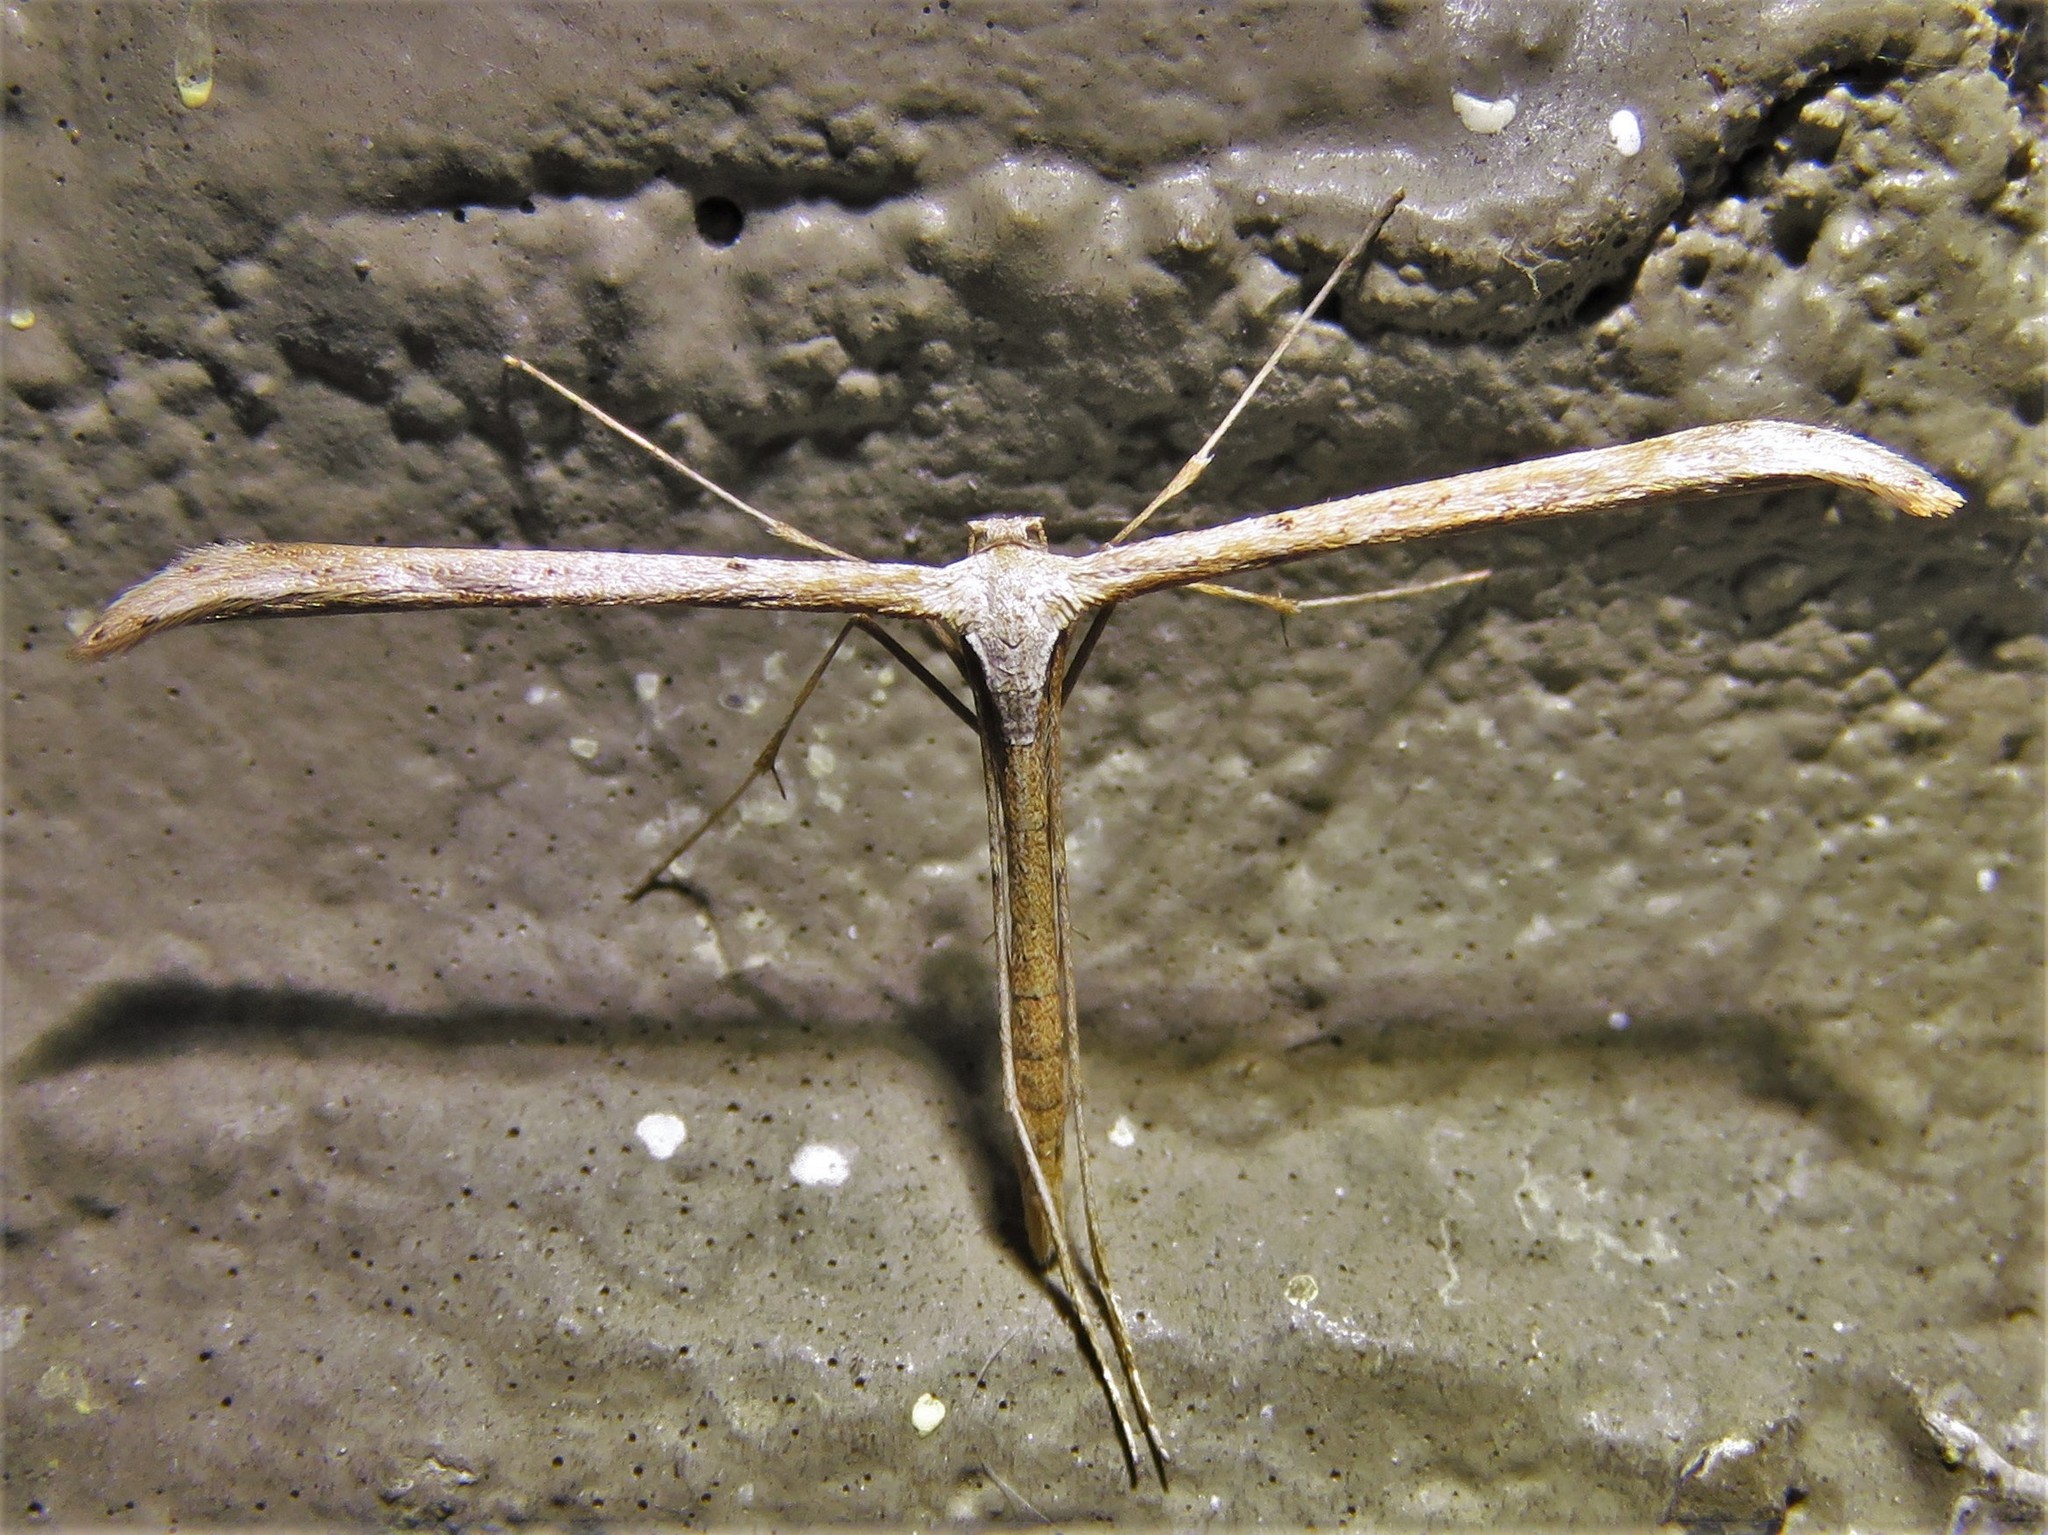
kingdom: Animalia
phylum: Arthropoda
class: Insecta
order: Lepidoptera
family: Pterophoridae
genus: Emmelina
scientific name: Emmelina monodactyla
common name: Common plume
